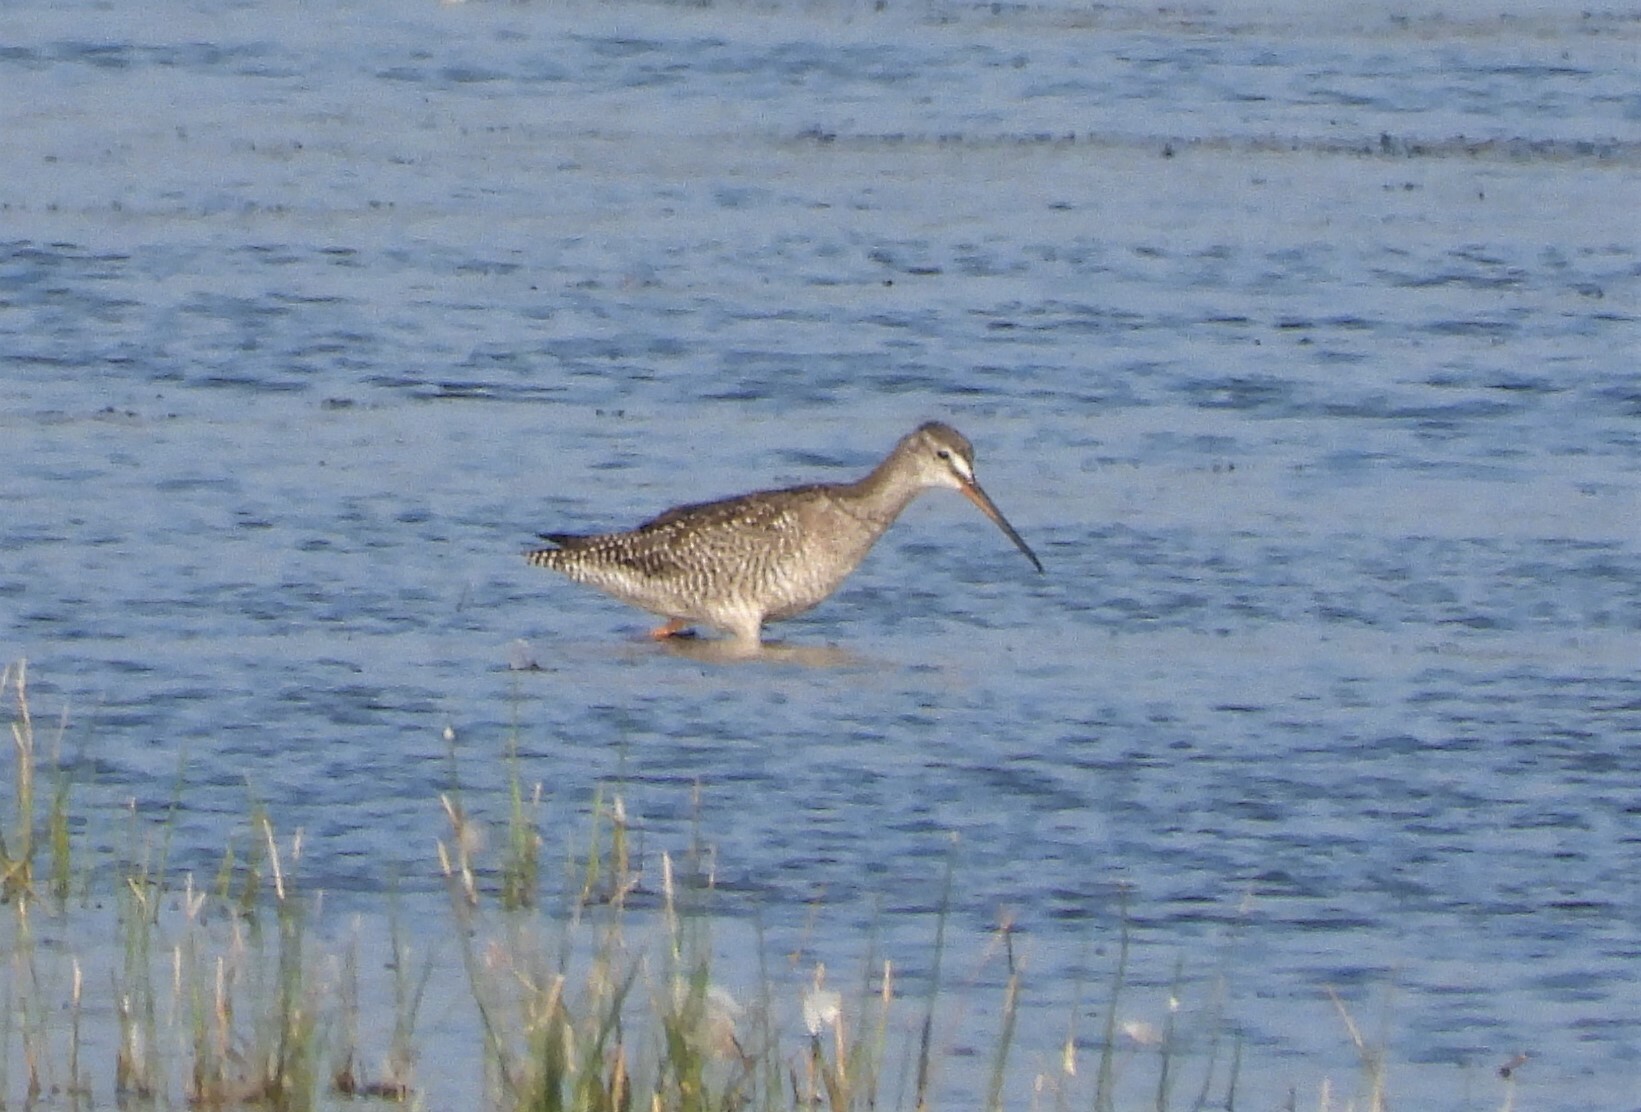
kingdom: Animalia
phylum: Chordata
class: Aves
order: Charadriiformes
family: Scolopacidae
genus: Tringa
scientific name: Tringa erythropus
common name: Spotted redshank
